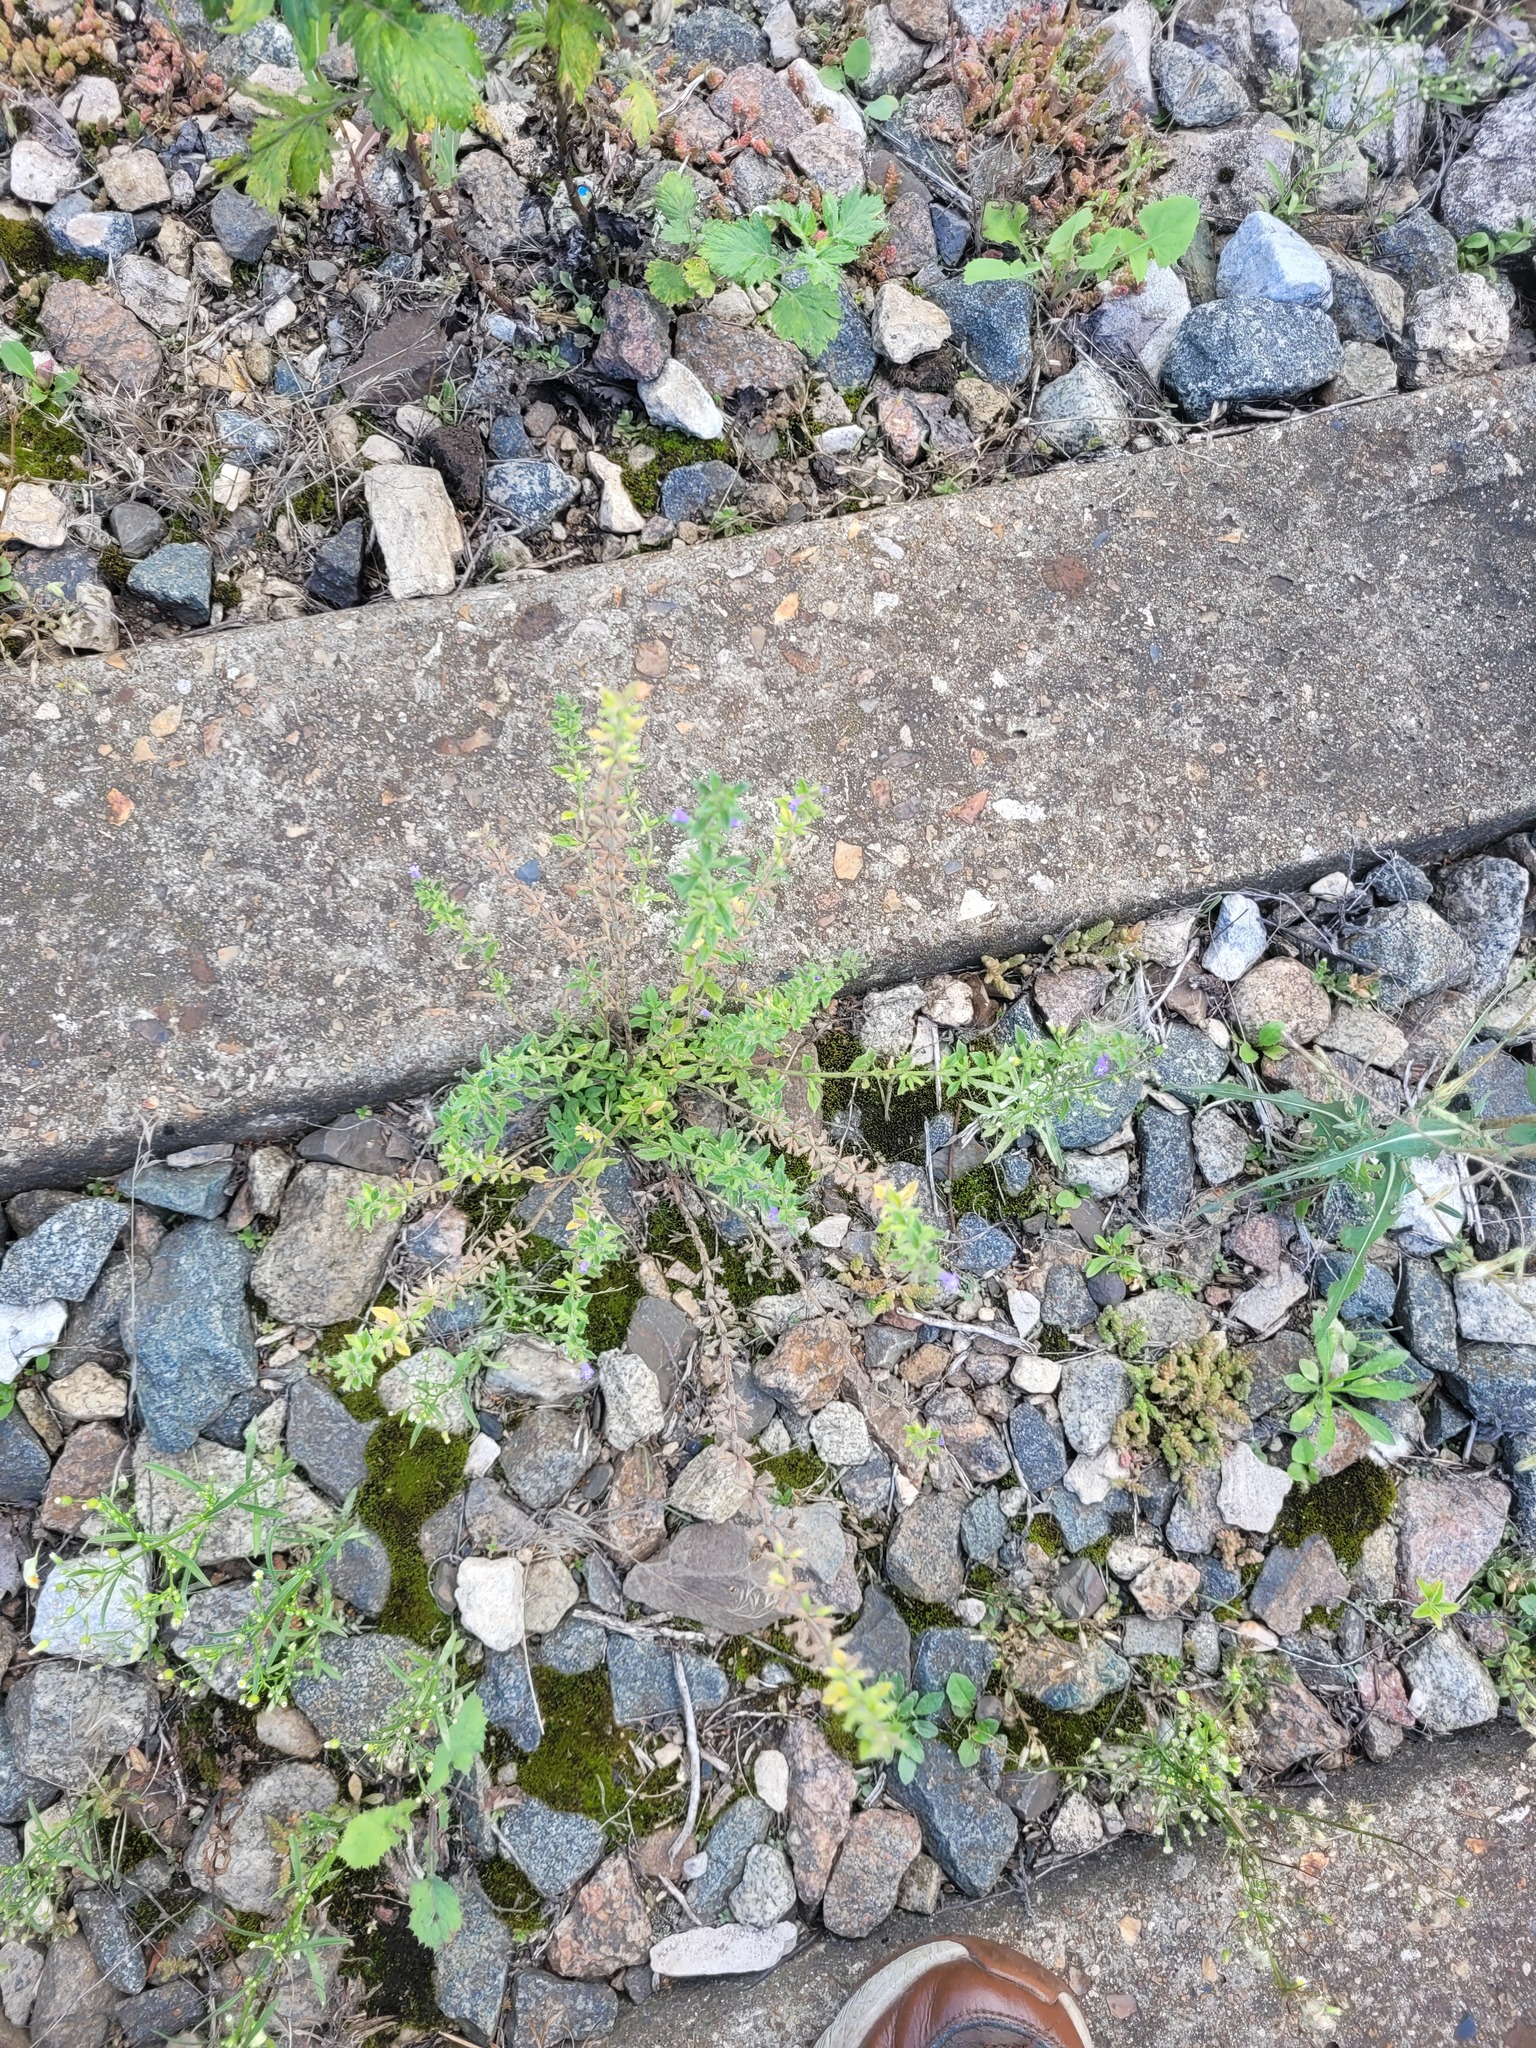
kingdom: Plantae
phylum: Tracheophyta
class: Magnoliopsida
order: Lamiales
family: Lamiaceae
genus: Clinopodium
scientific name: Clinopodium acinos
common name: Basil thyme
